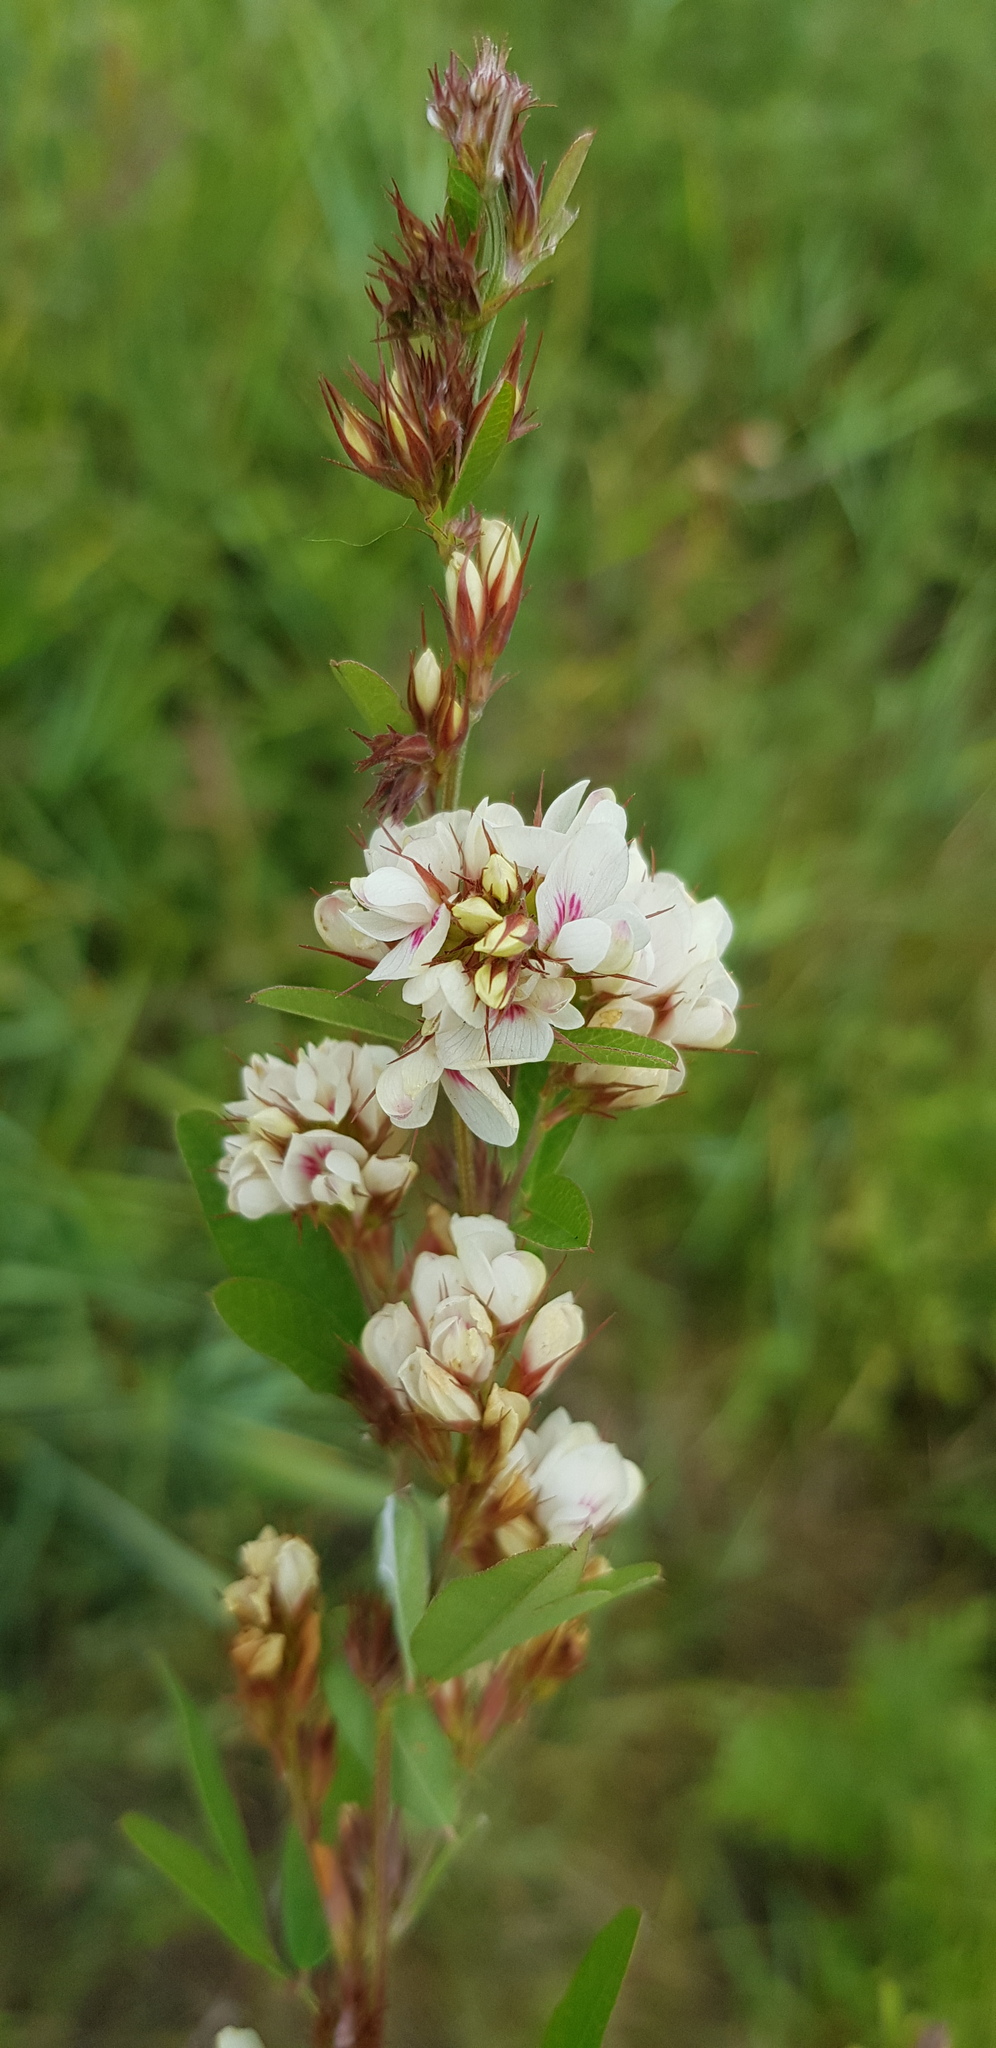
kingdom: Plantae
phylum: Tracheophyta
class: Magnoliopsida
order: Fabales
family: Fabaceae
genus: Lespedeza
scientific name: Lespedeza daurica
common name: Dahurian lespedeza
